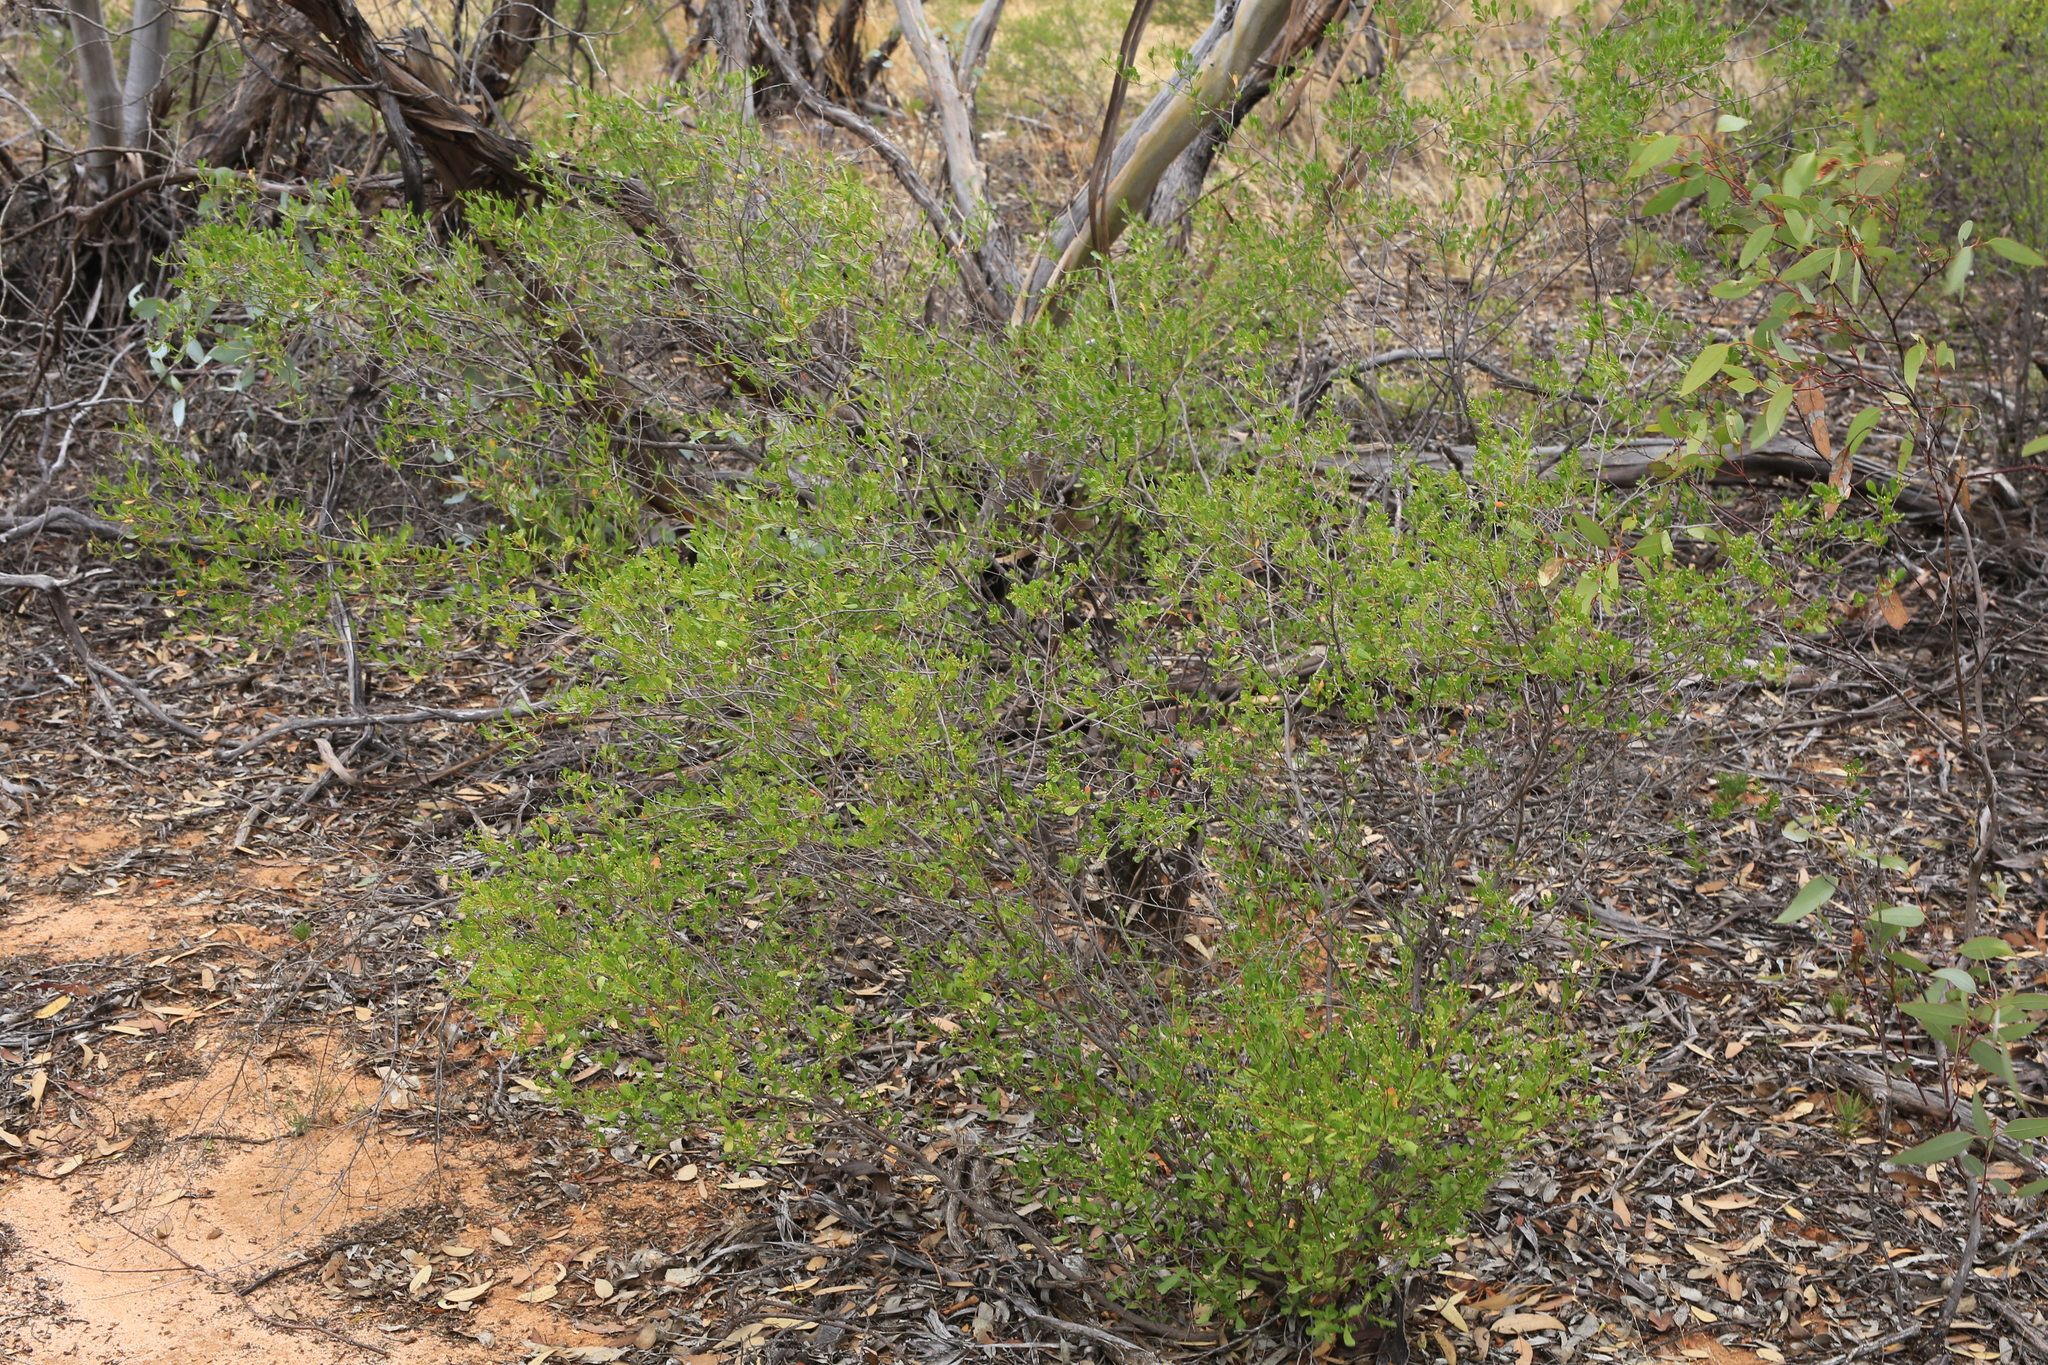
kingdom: Plantae
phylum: Tracheophyta
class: Magnoliopsida
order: Sapindales
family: Sapindaceae
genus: Dodonaea
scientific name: Dodonaea viscosa
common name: Hopbush
